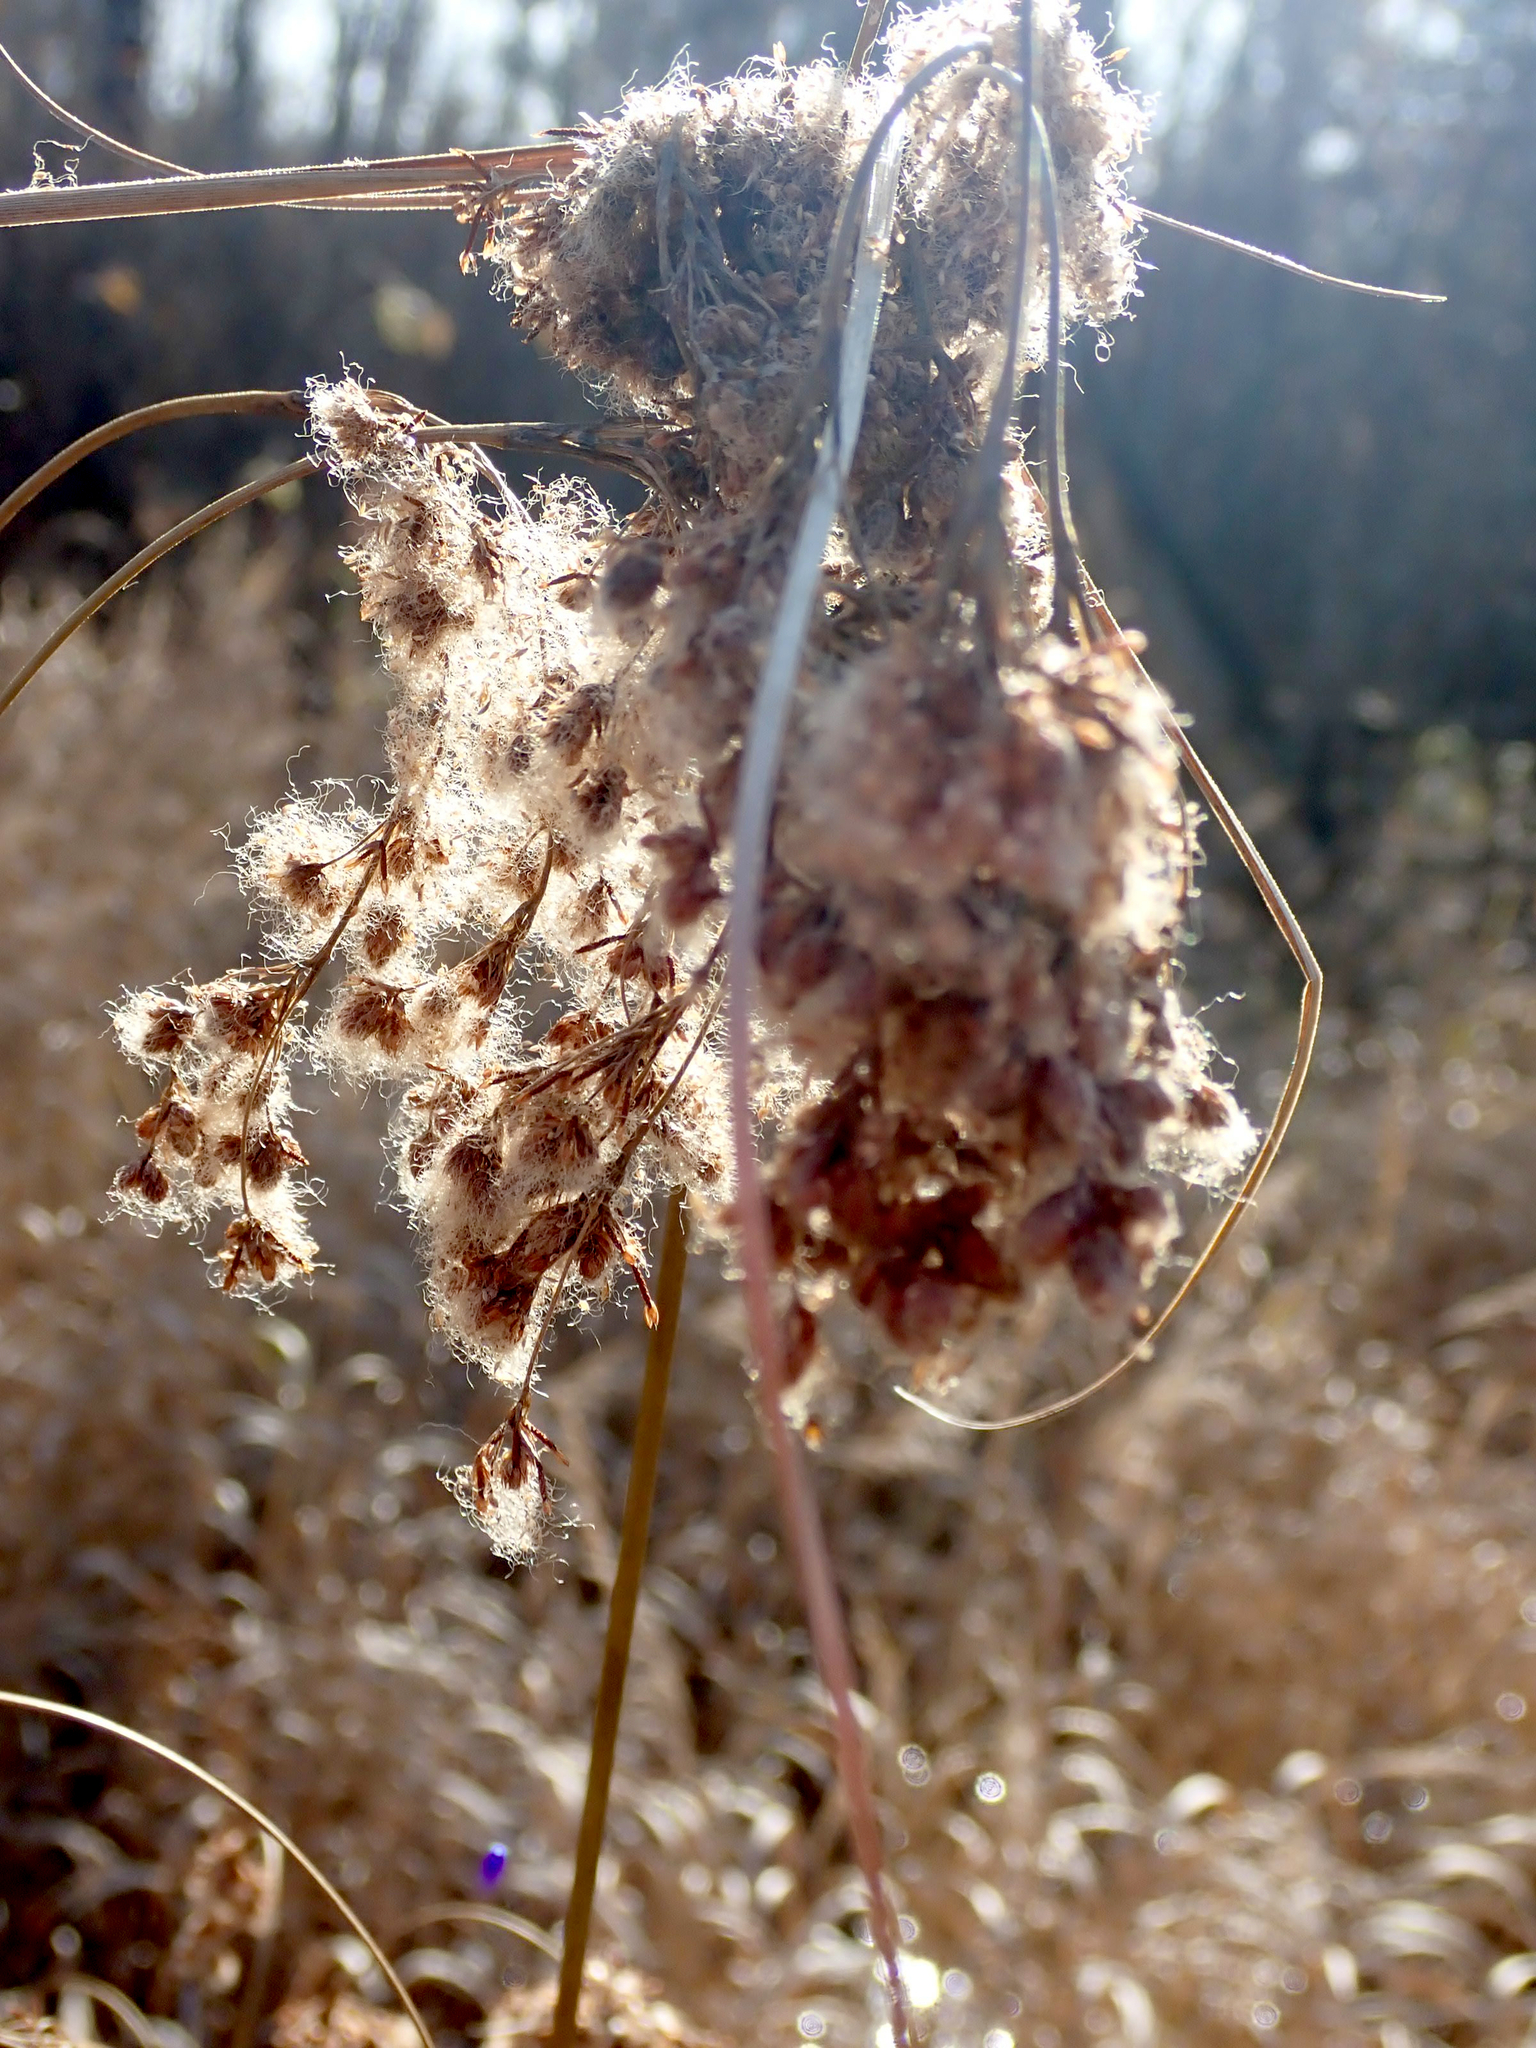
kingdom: Plantae
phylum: Tracheophyta
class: Liliopsida
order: Poales
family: Cyperaceae
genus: Scirpus
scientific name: Scirpus cyperinus
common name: Black-sheathed bulrush
